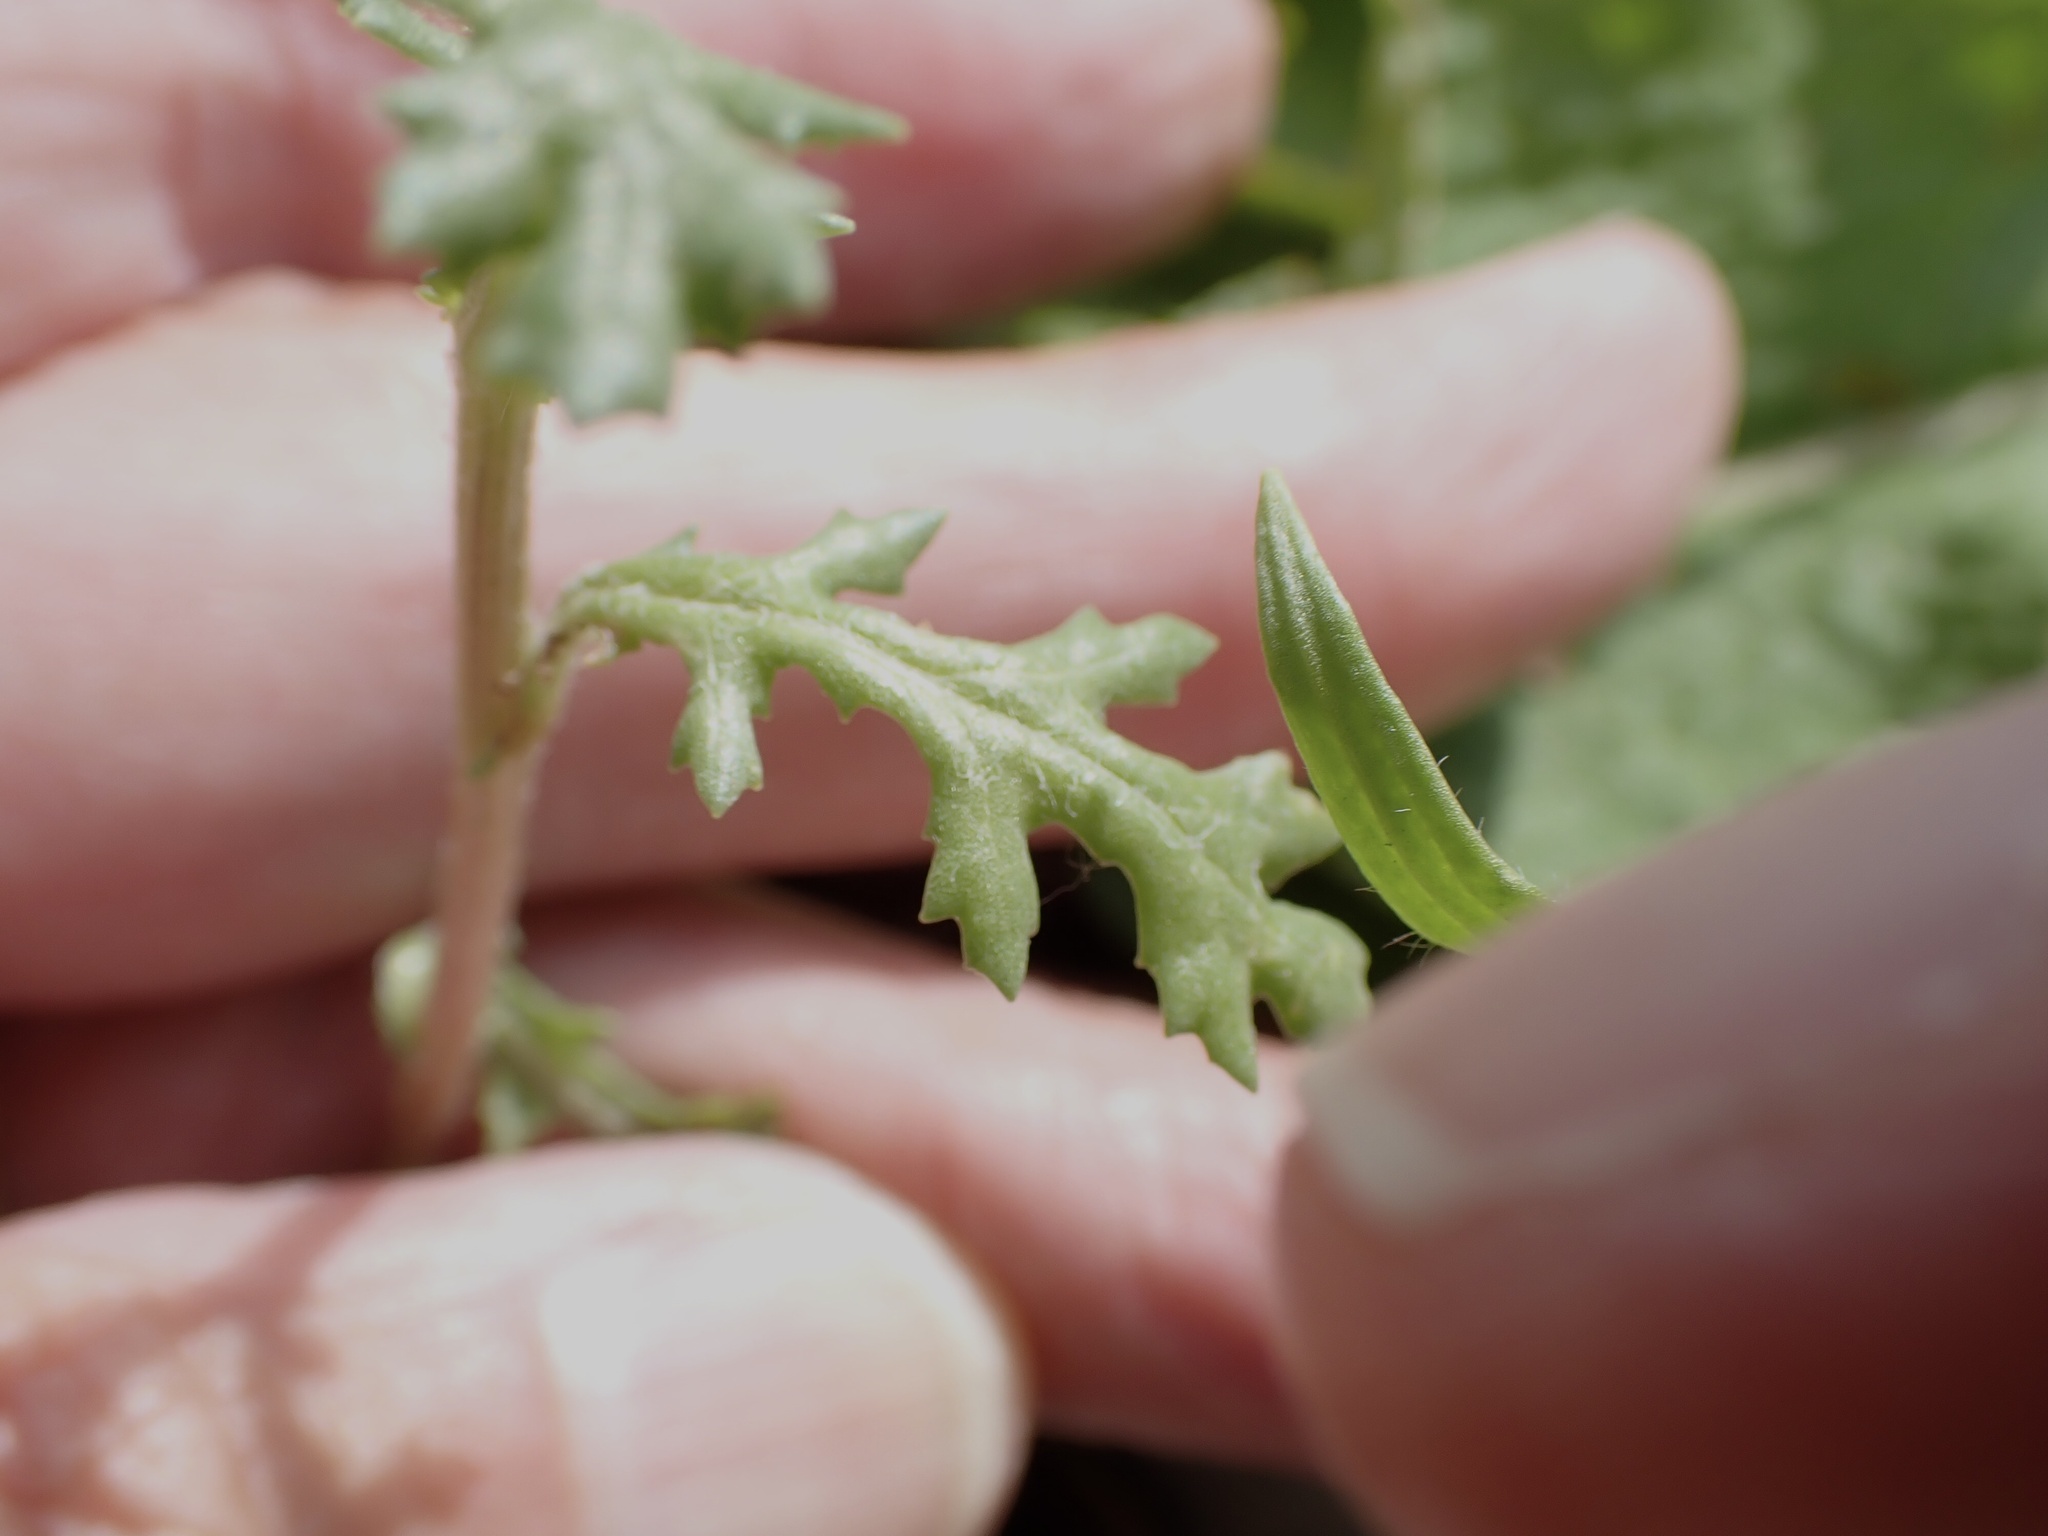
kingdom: Plantae
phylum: Tracheophyta
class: Magnoliopsida
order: Asterales
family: Asteraceae
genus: Senecio
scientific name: Senecio vulgaris
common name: Old-man-in-the-spring
